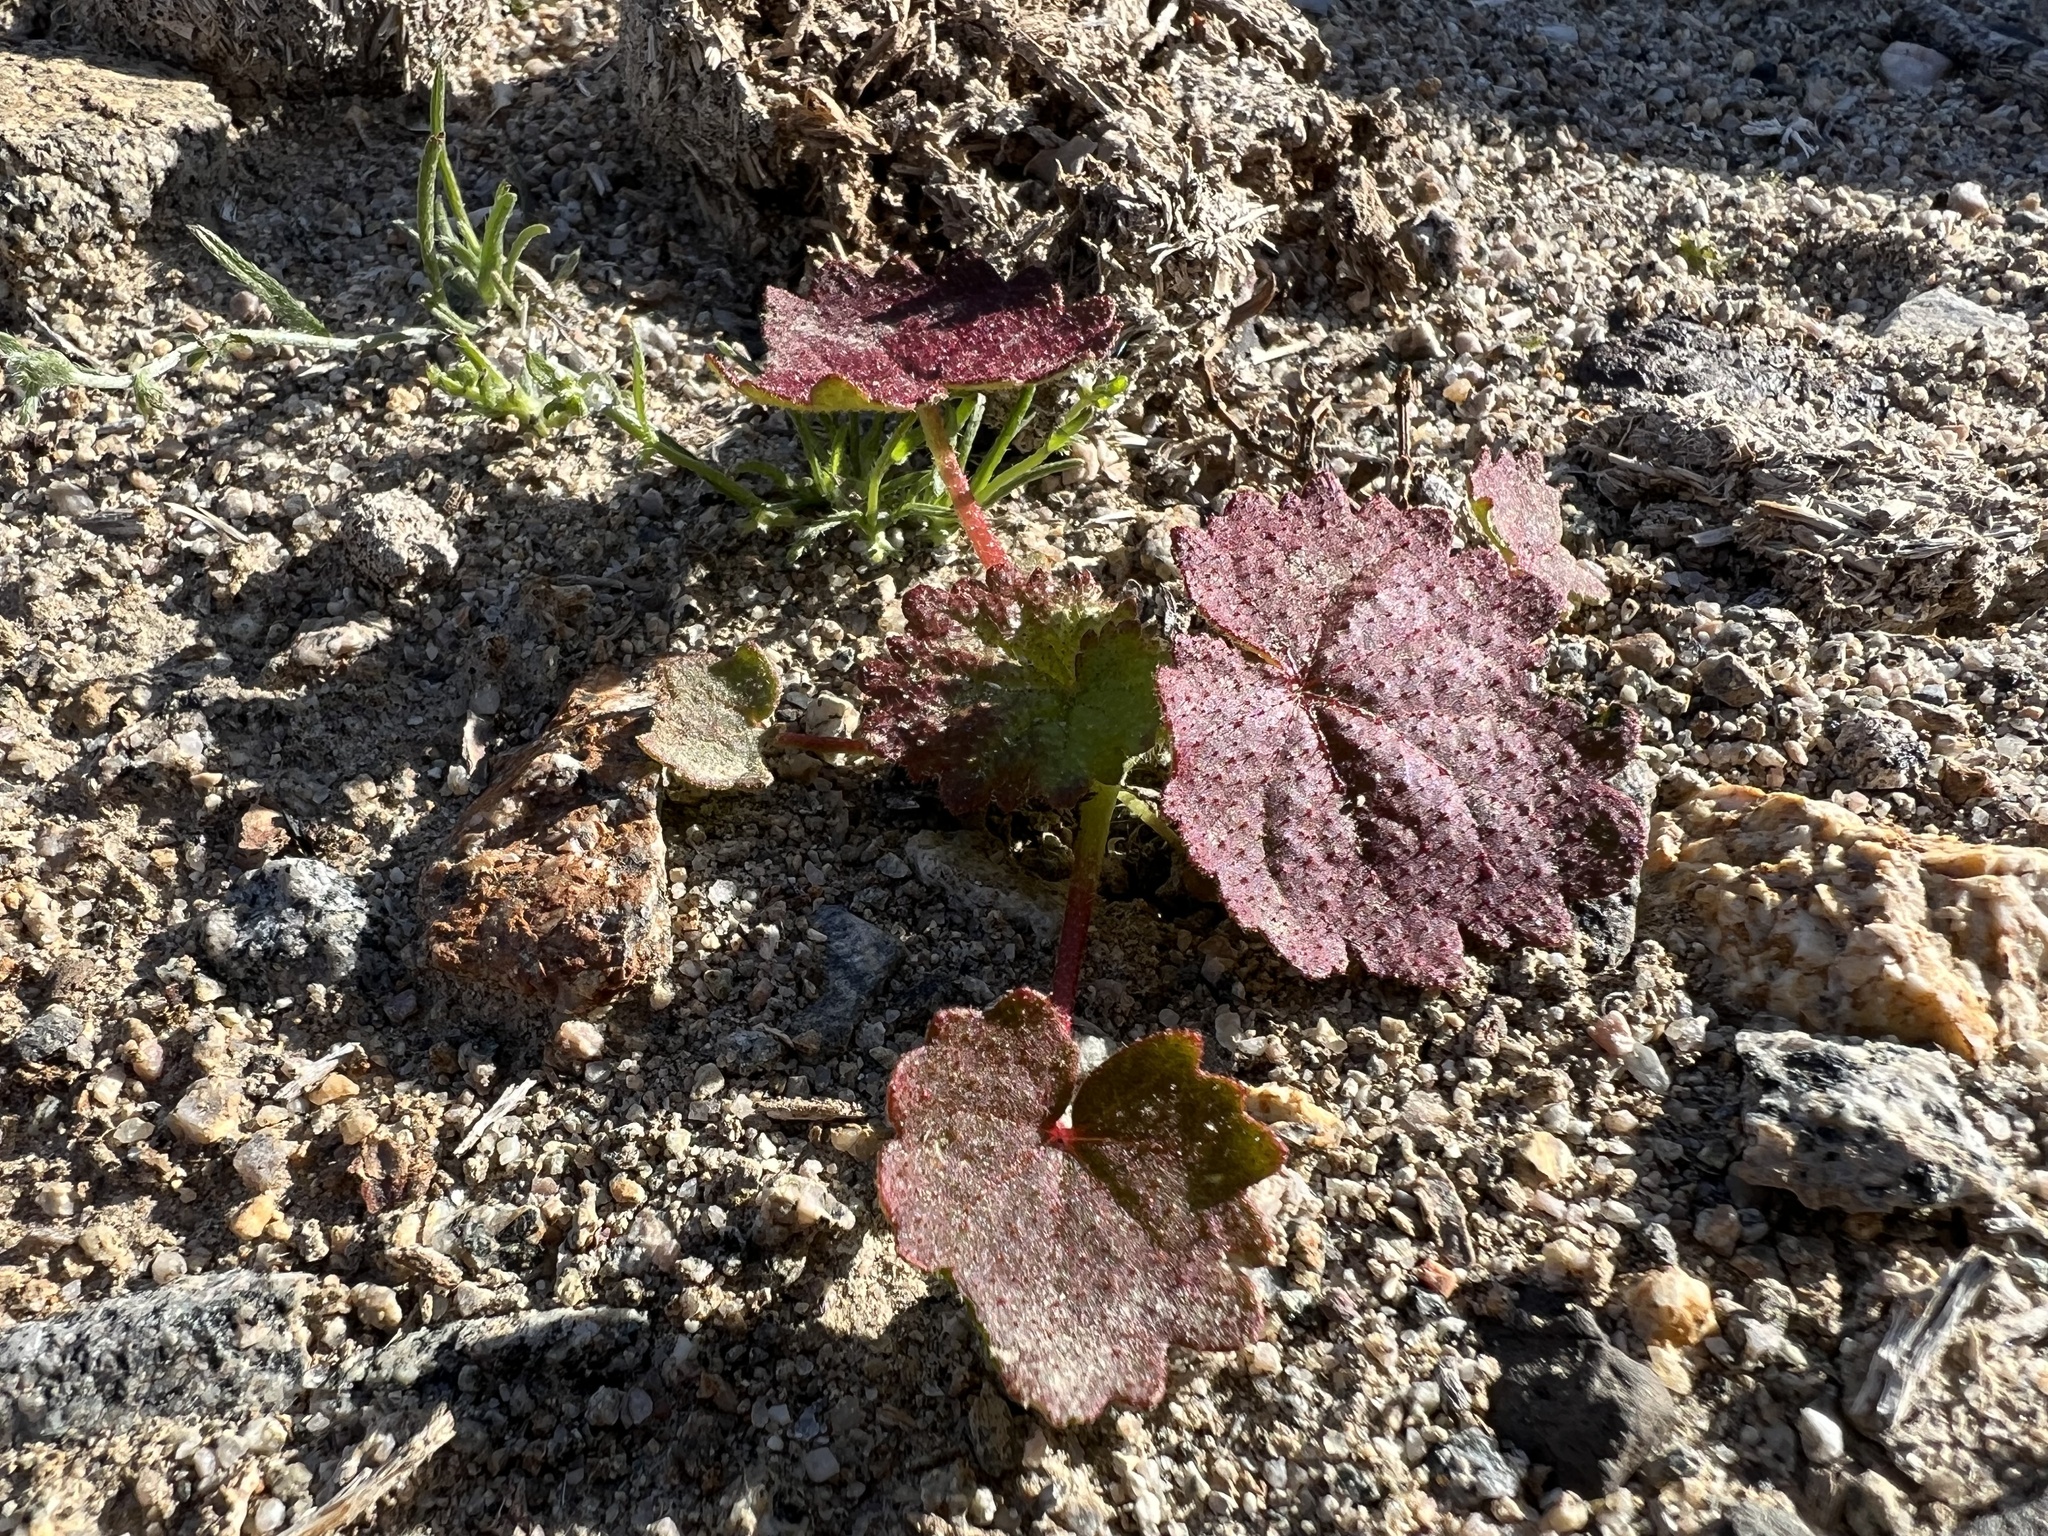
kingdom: Plantae
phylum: Tracheophyta
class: Magnoliopsida
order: Malvales
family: Malvaceae
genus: Eremalche
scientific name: Eremalche rotundifolia
